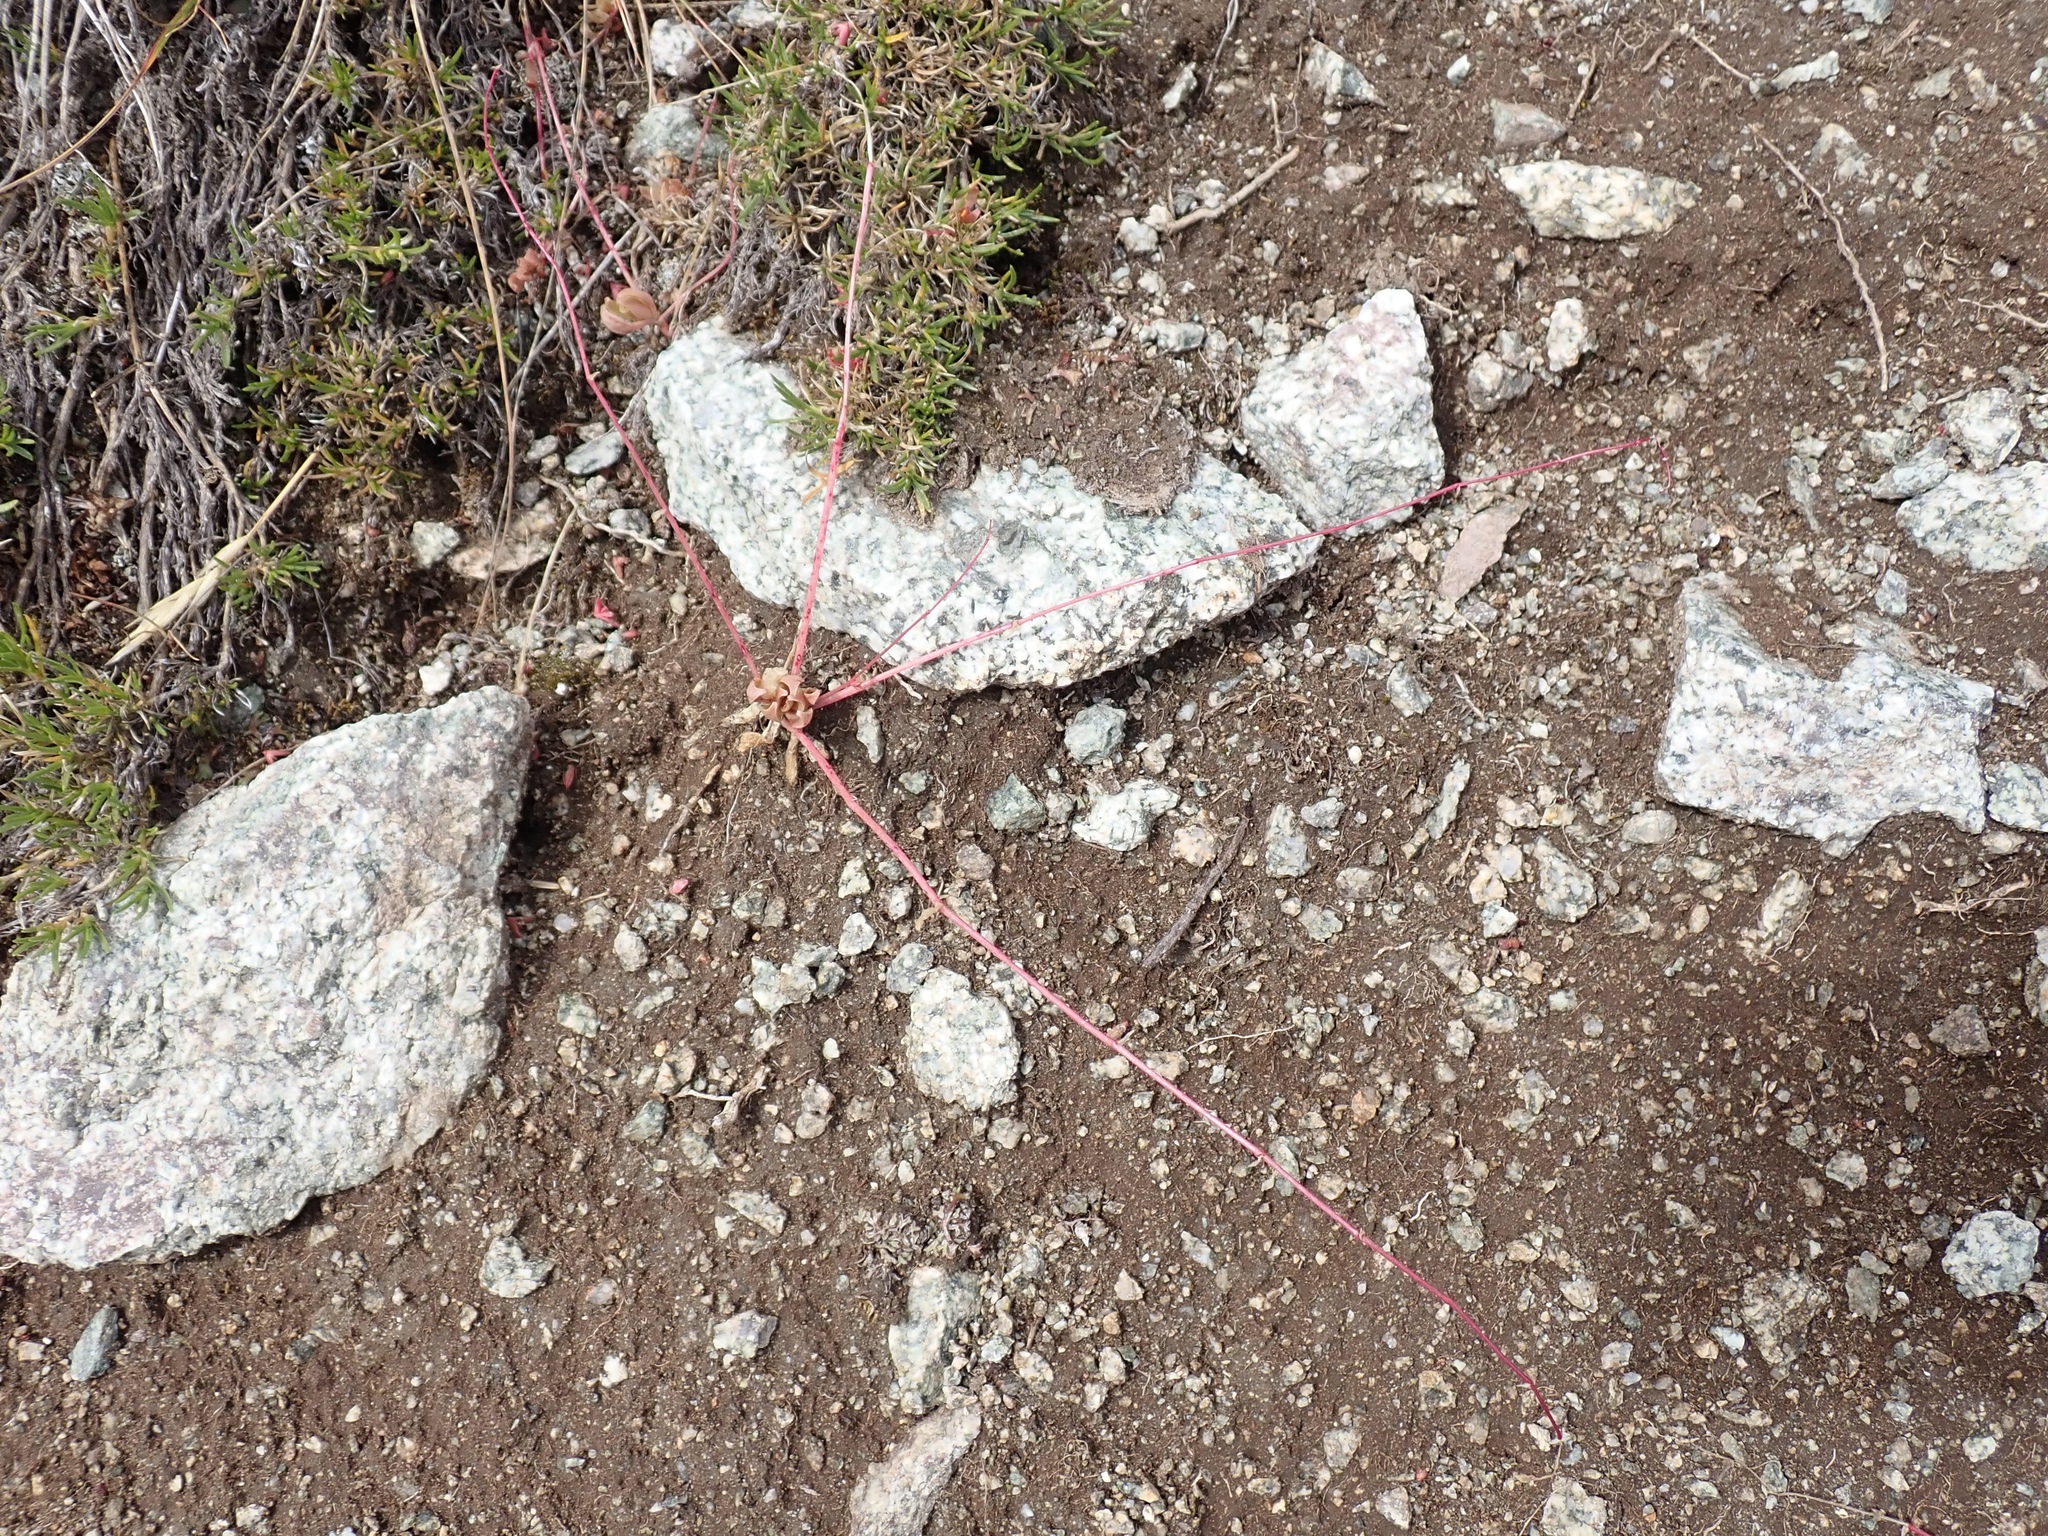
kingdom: Plantae
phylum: Tracheophyta
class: Magnoliopsida
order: Caryophyllales
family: Montiaceae
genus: Montia
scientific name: Montia parvifolia
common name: Small-leaved blinks
